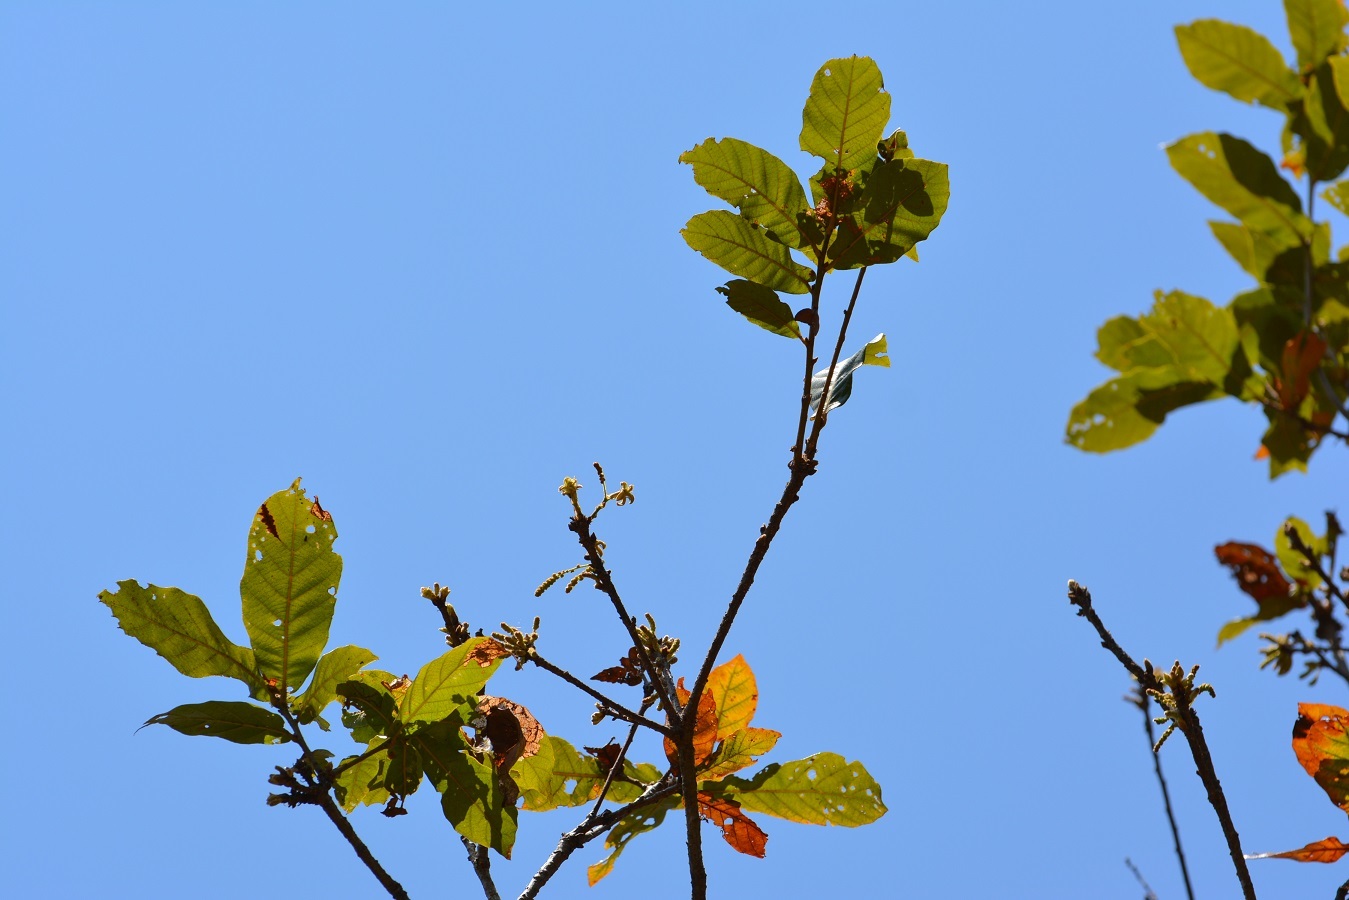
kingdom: Plantae
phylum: Tracheophyta
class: Magnoliopsida
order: Fagales
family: Fagaceae
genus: Quercus
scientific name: Quercus purulhana
